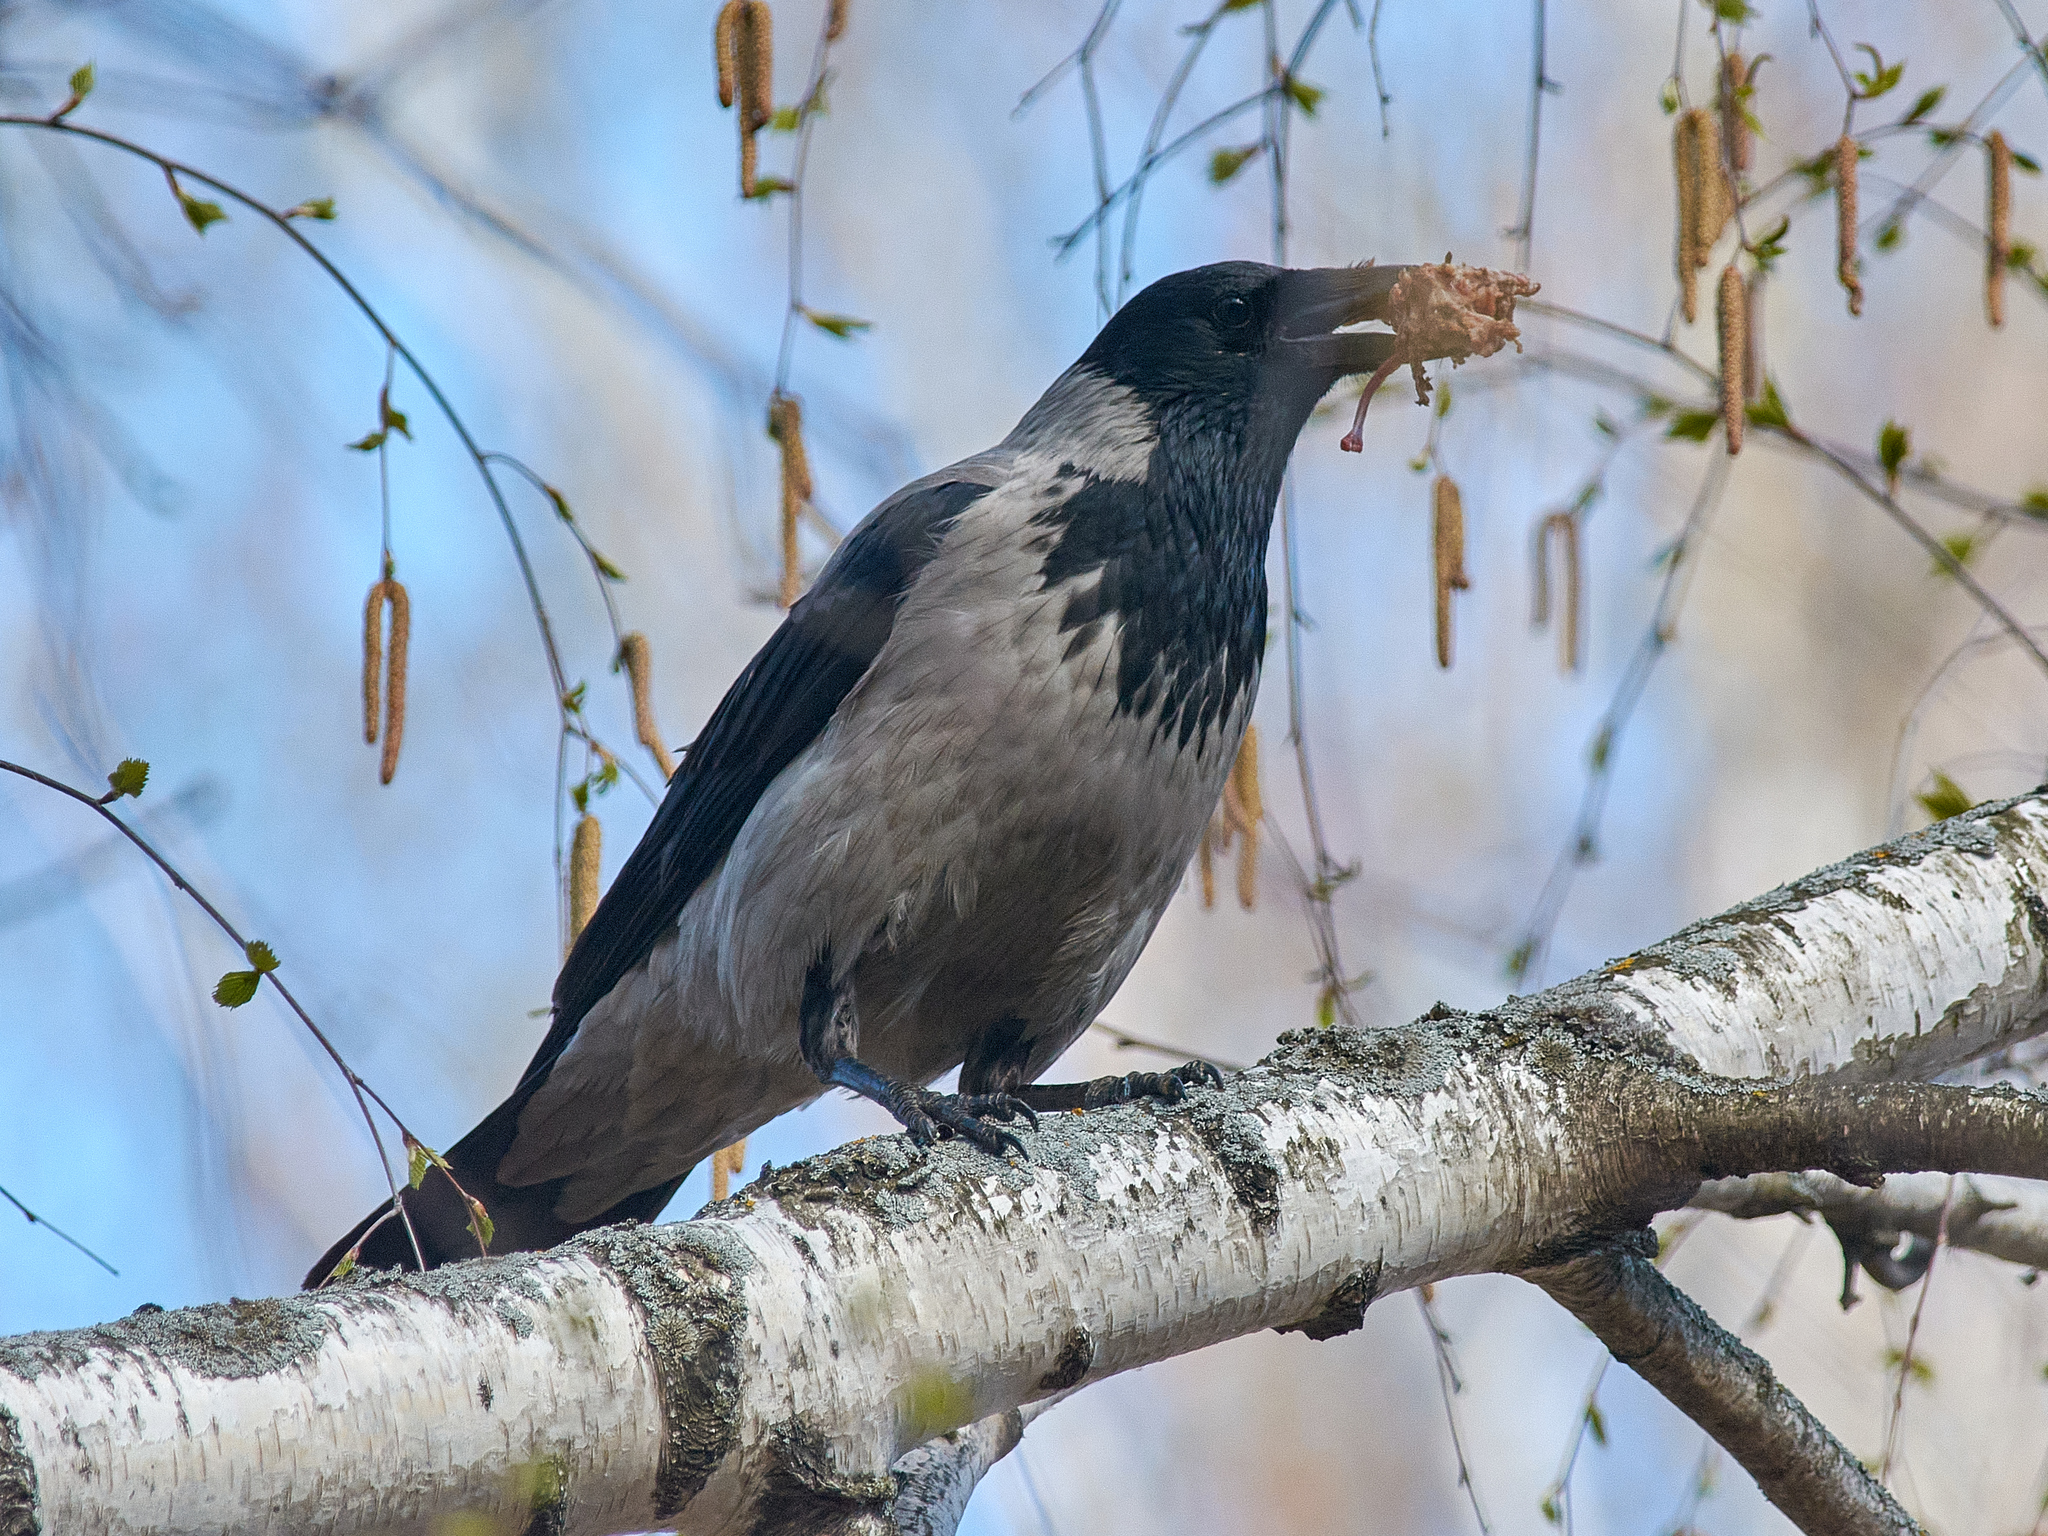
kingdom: Animalia
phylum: Chordata
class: Aves
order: Passeriformes
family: Corvidae
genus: Corvus
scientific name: Corvus cornix
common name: Hooded crow
